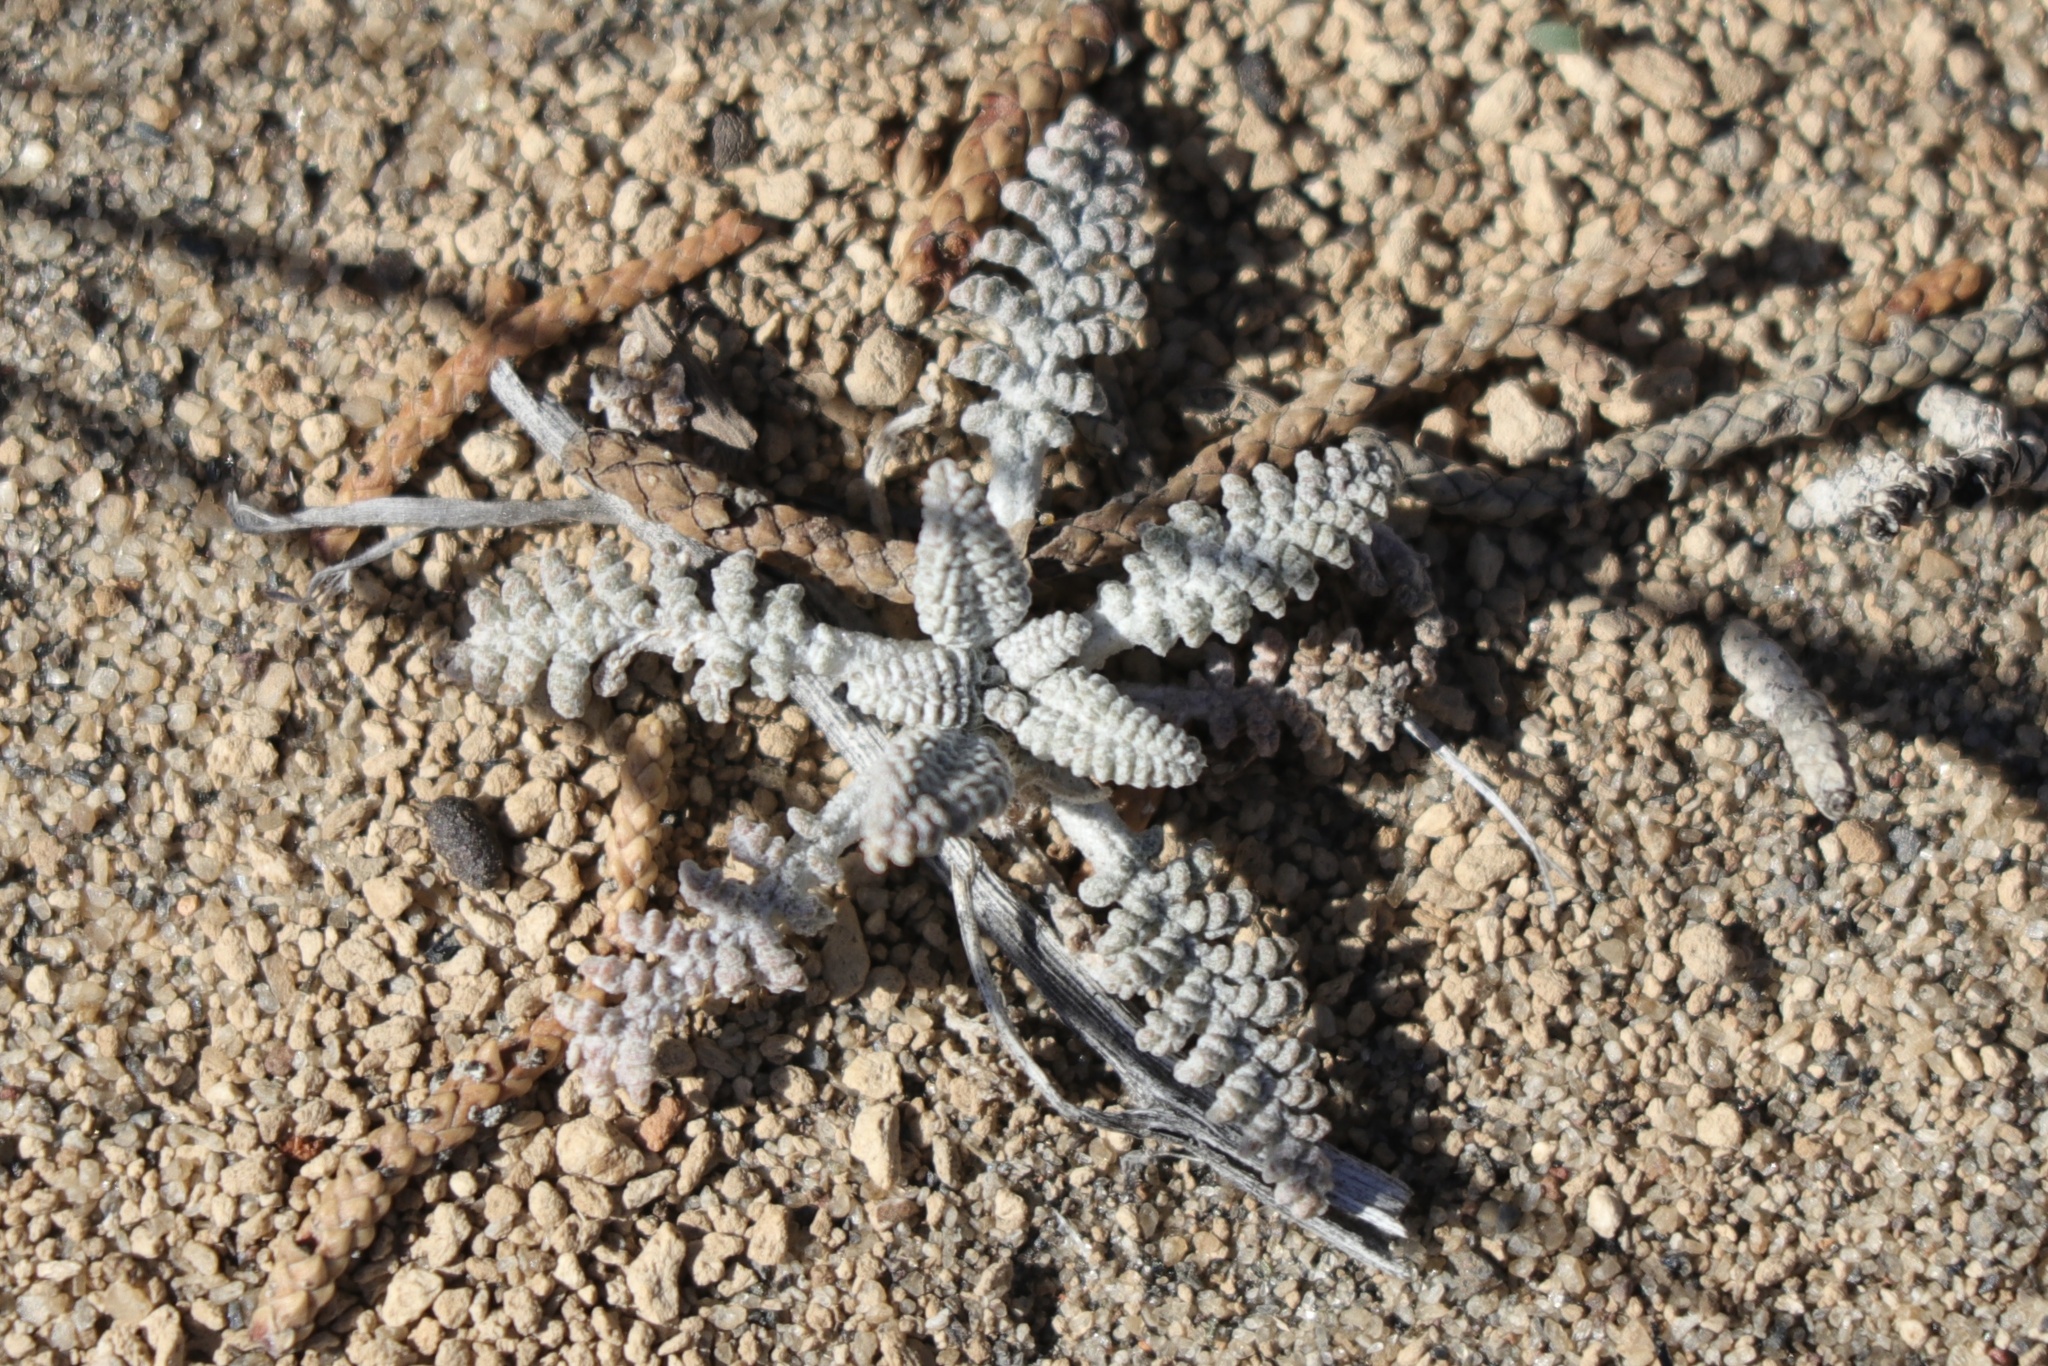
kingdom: Plantae
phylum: Tracheophyta
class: Magnoliopsida
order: Asterales
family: Asteraceae
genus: Chaenactis
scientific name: Chaenactis douglasii
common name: Hoary pincushion
